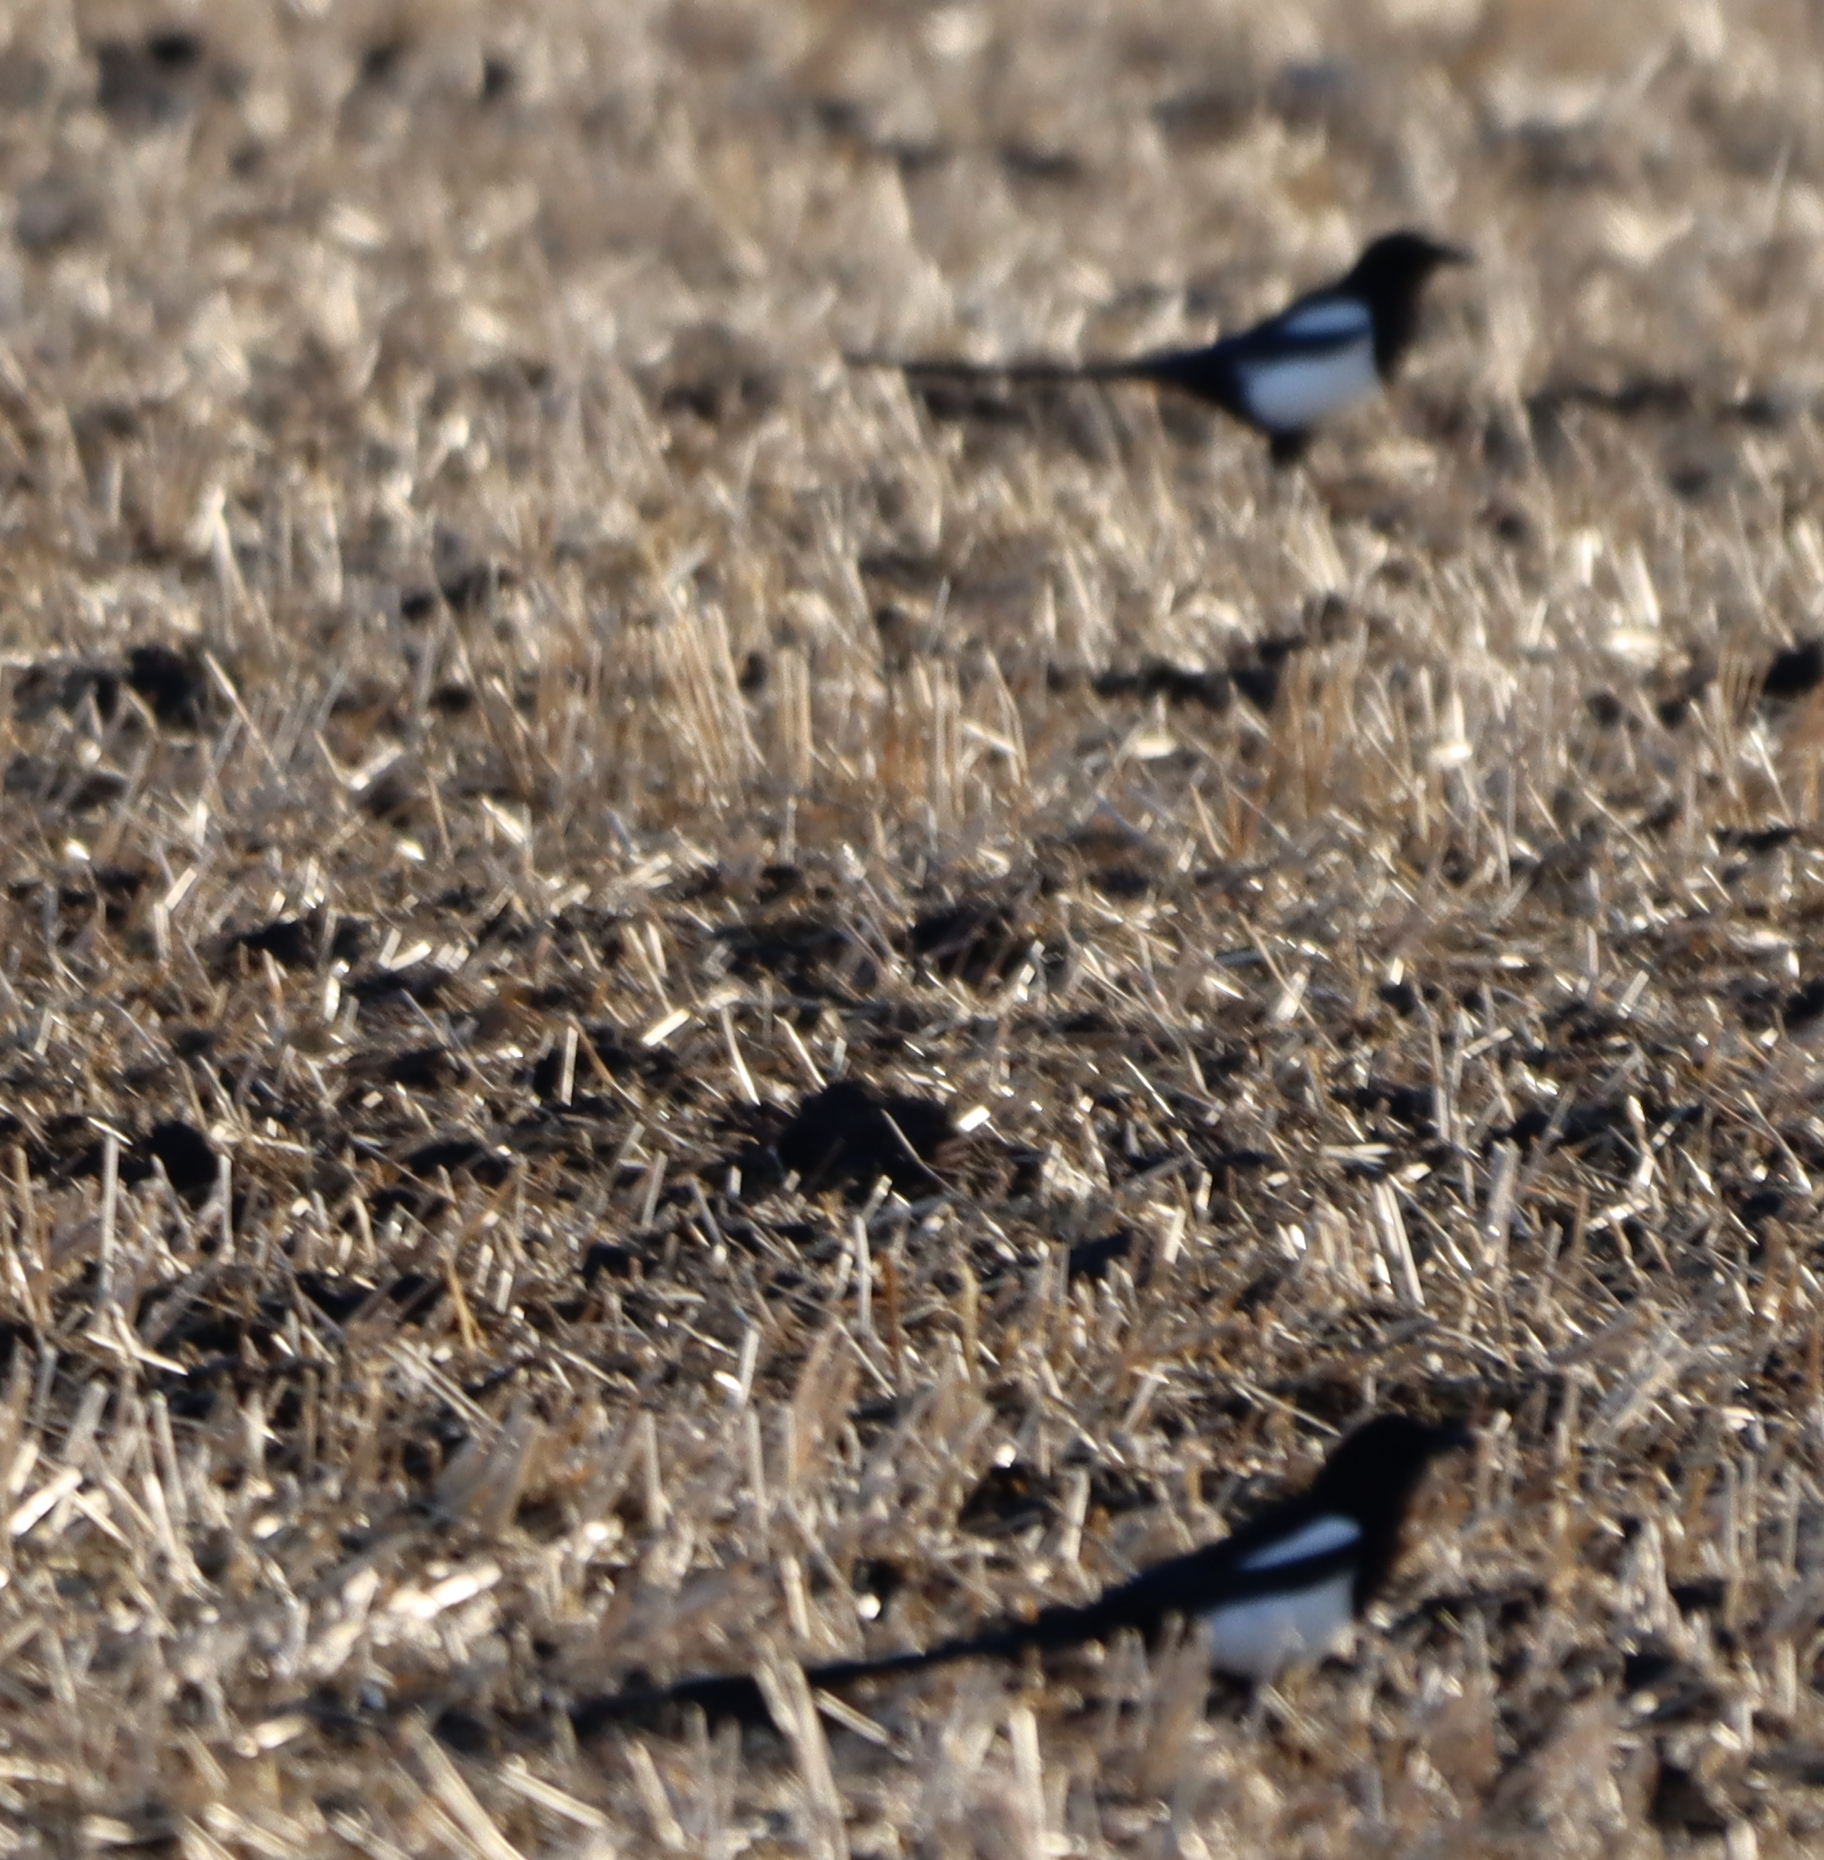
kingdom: Animalia
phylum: Chordata
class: Aves
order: Passeriformes
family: Corvidae
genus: Pica
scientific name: Pica hudsonia
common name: Black-billed magpie
